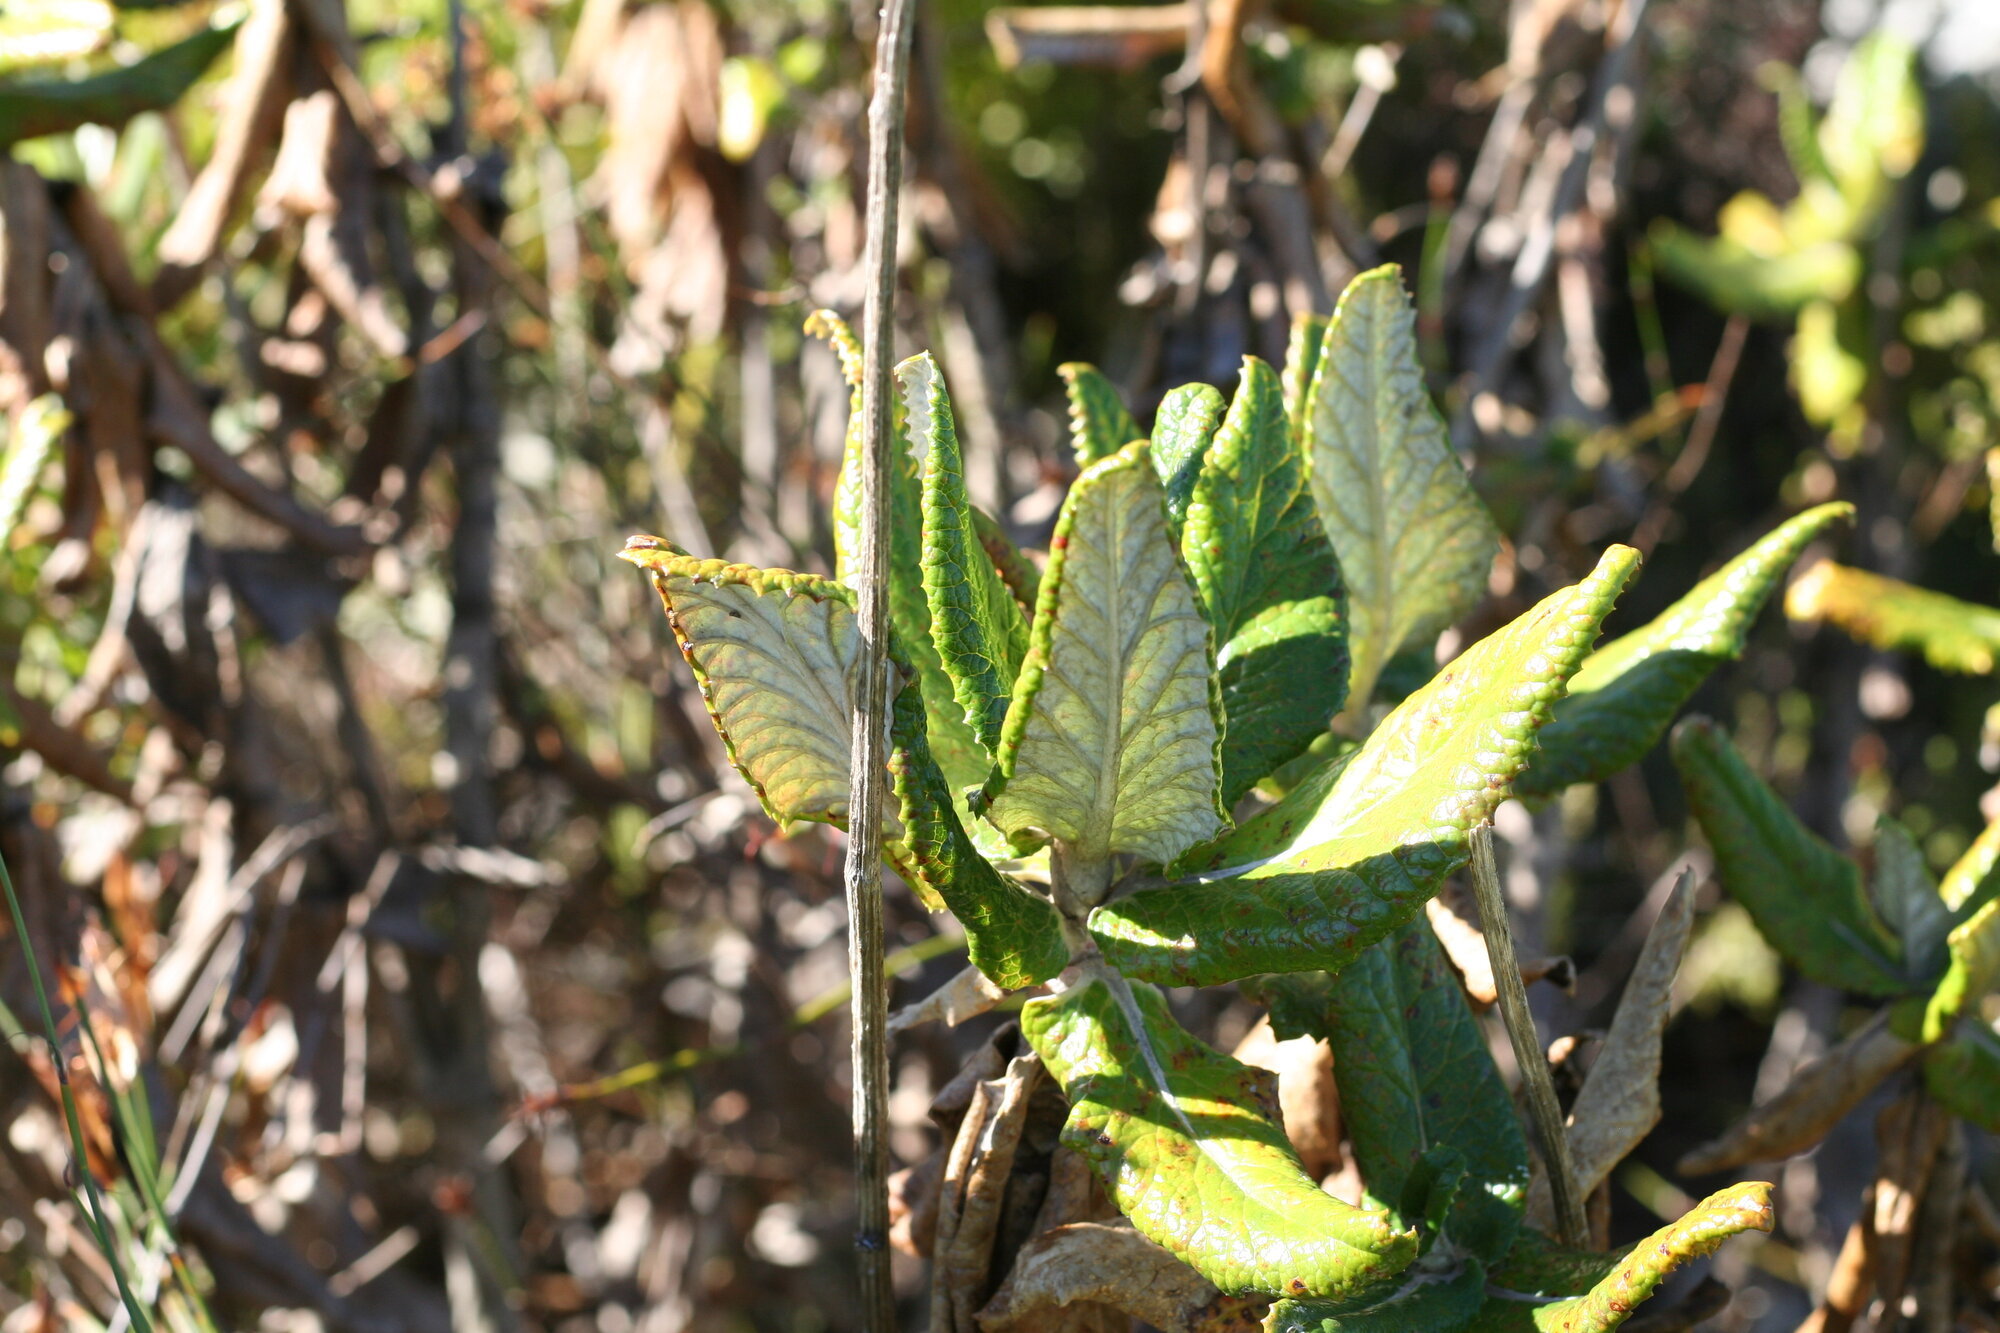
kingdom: Plantae
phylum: Tracheophyta
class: Magnoliopsida
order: Apiales
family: Apiaceae
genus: Hermas
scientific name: Hermas villosa
